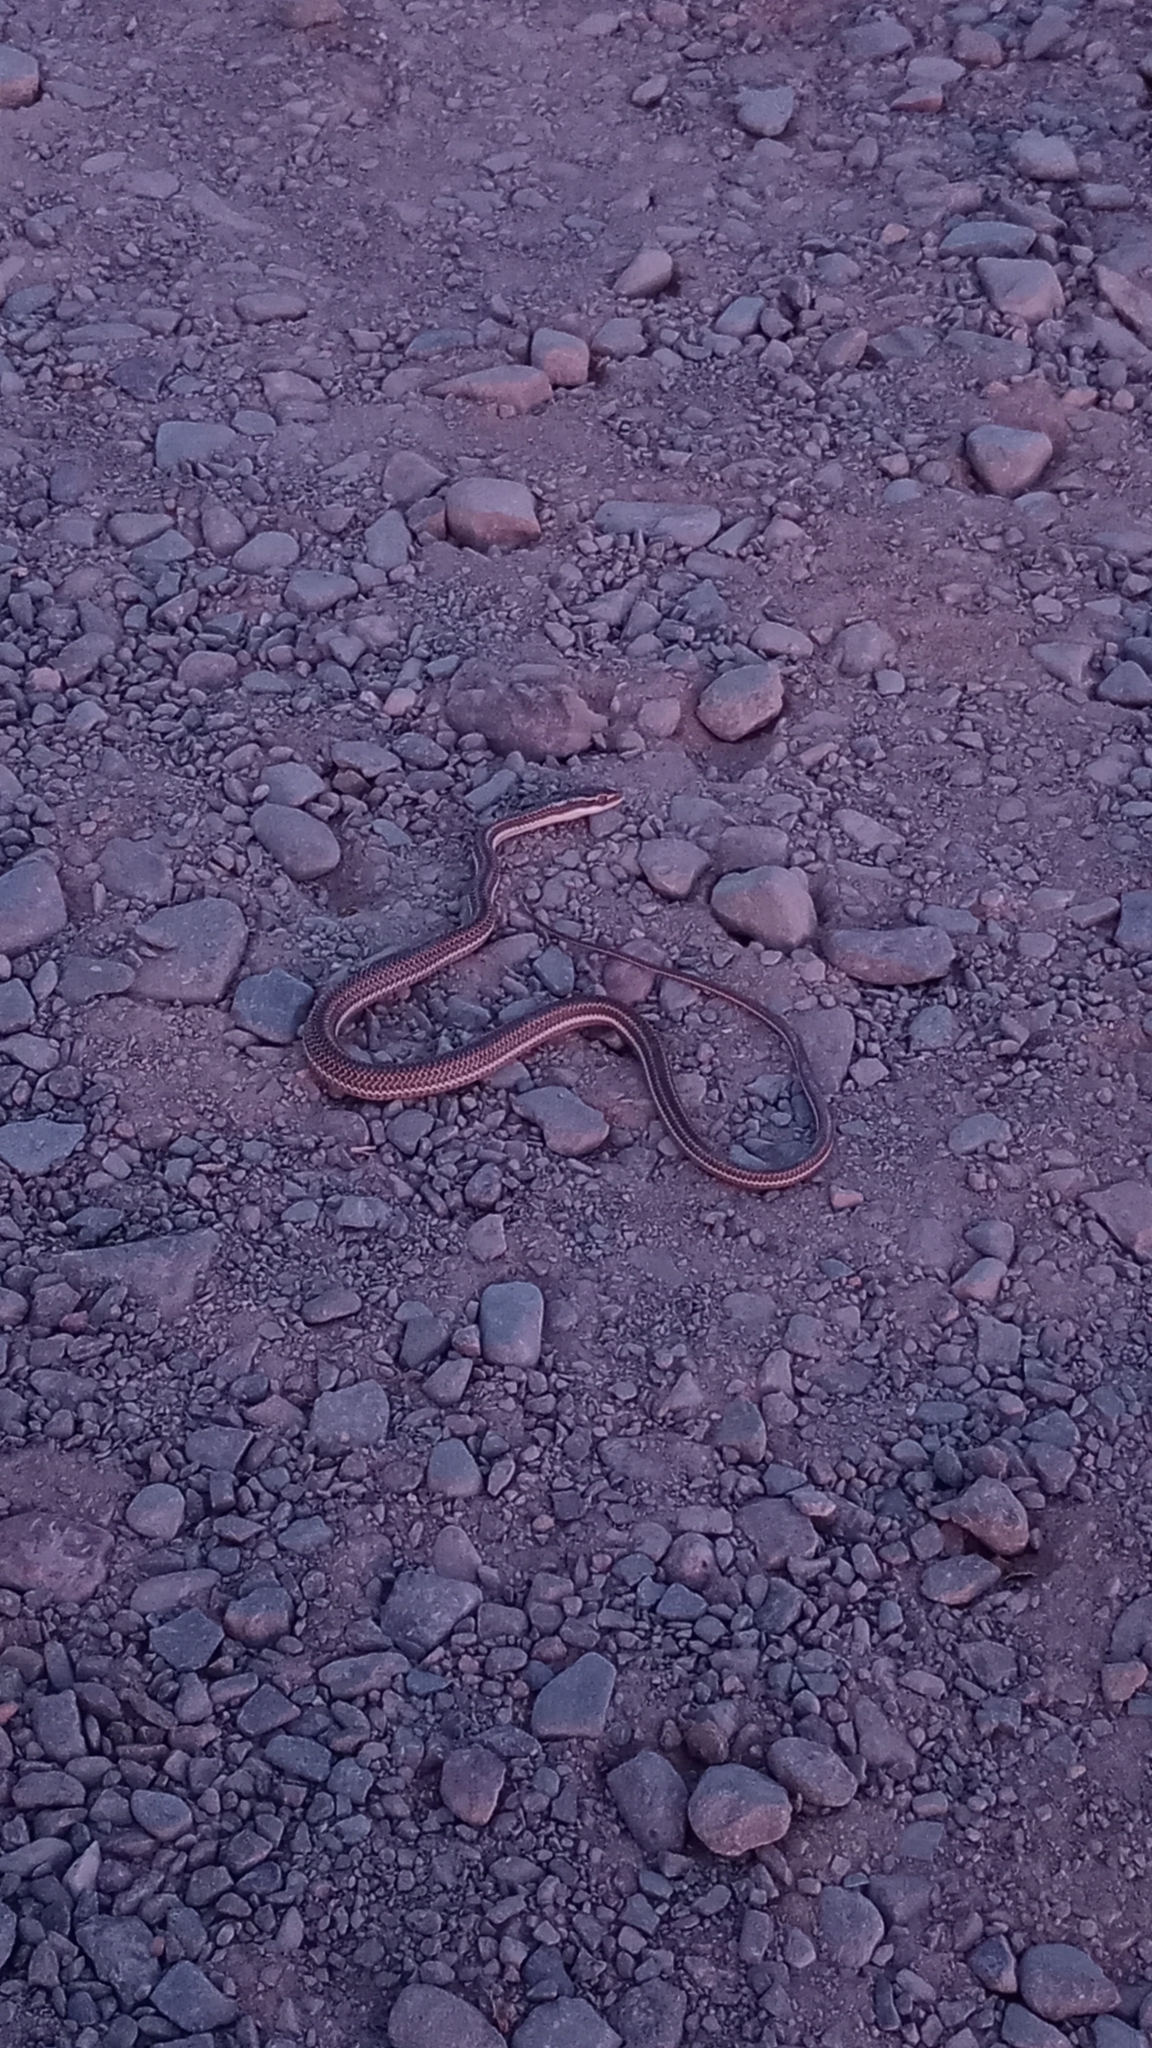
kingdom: Animalia
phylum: Chordata
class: Squamata
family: Colubridae
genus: Philodryas
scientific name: Philodryas trilineata
